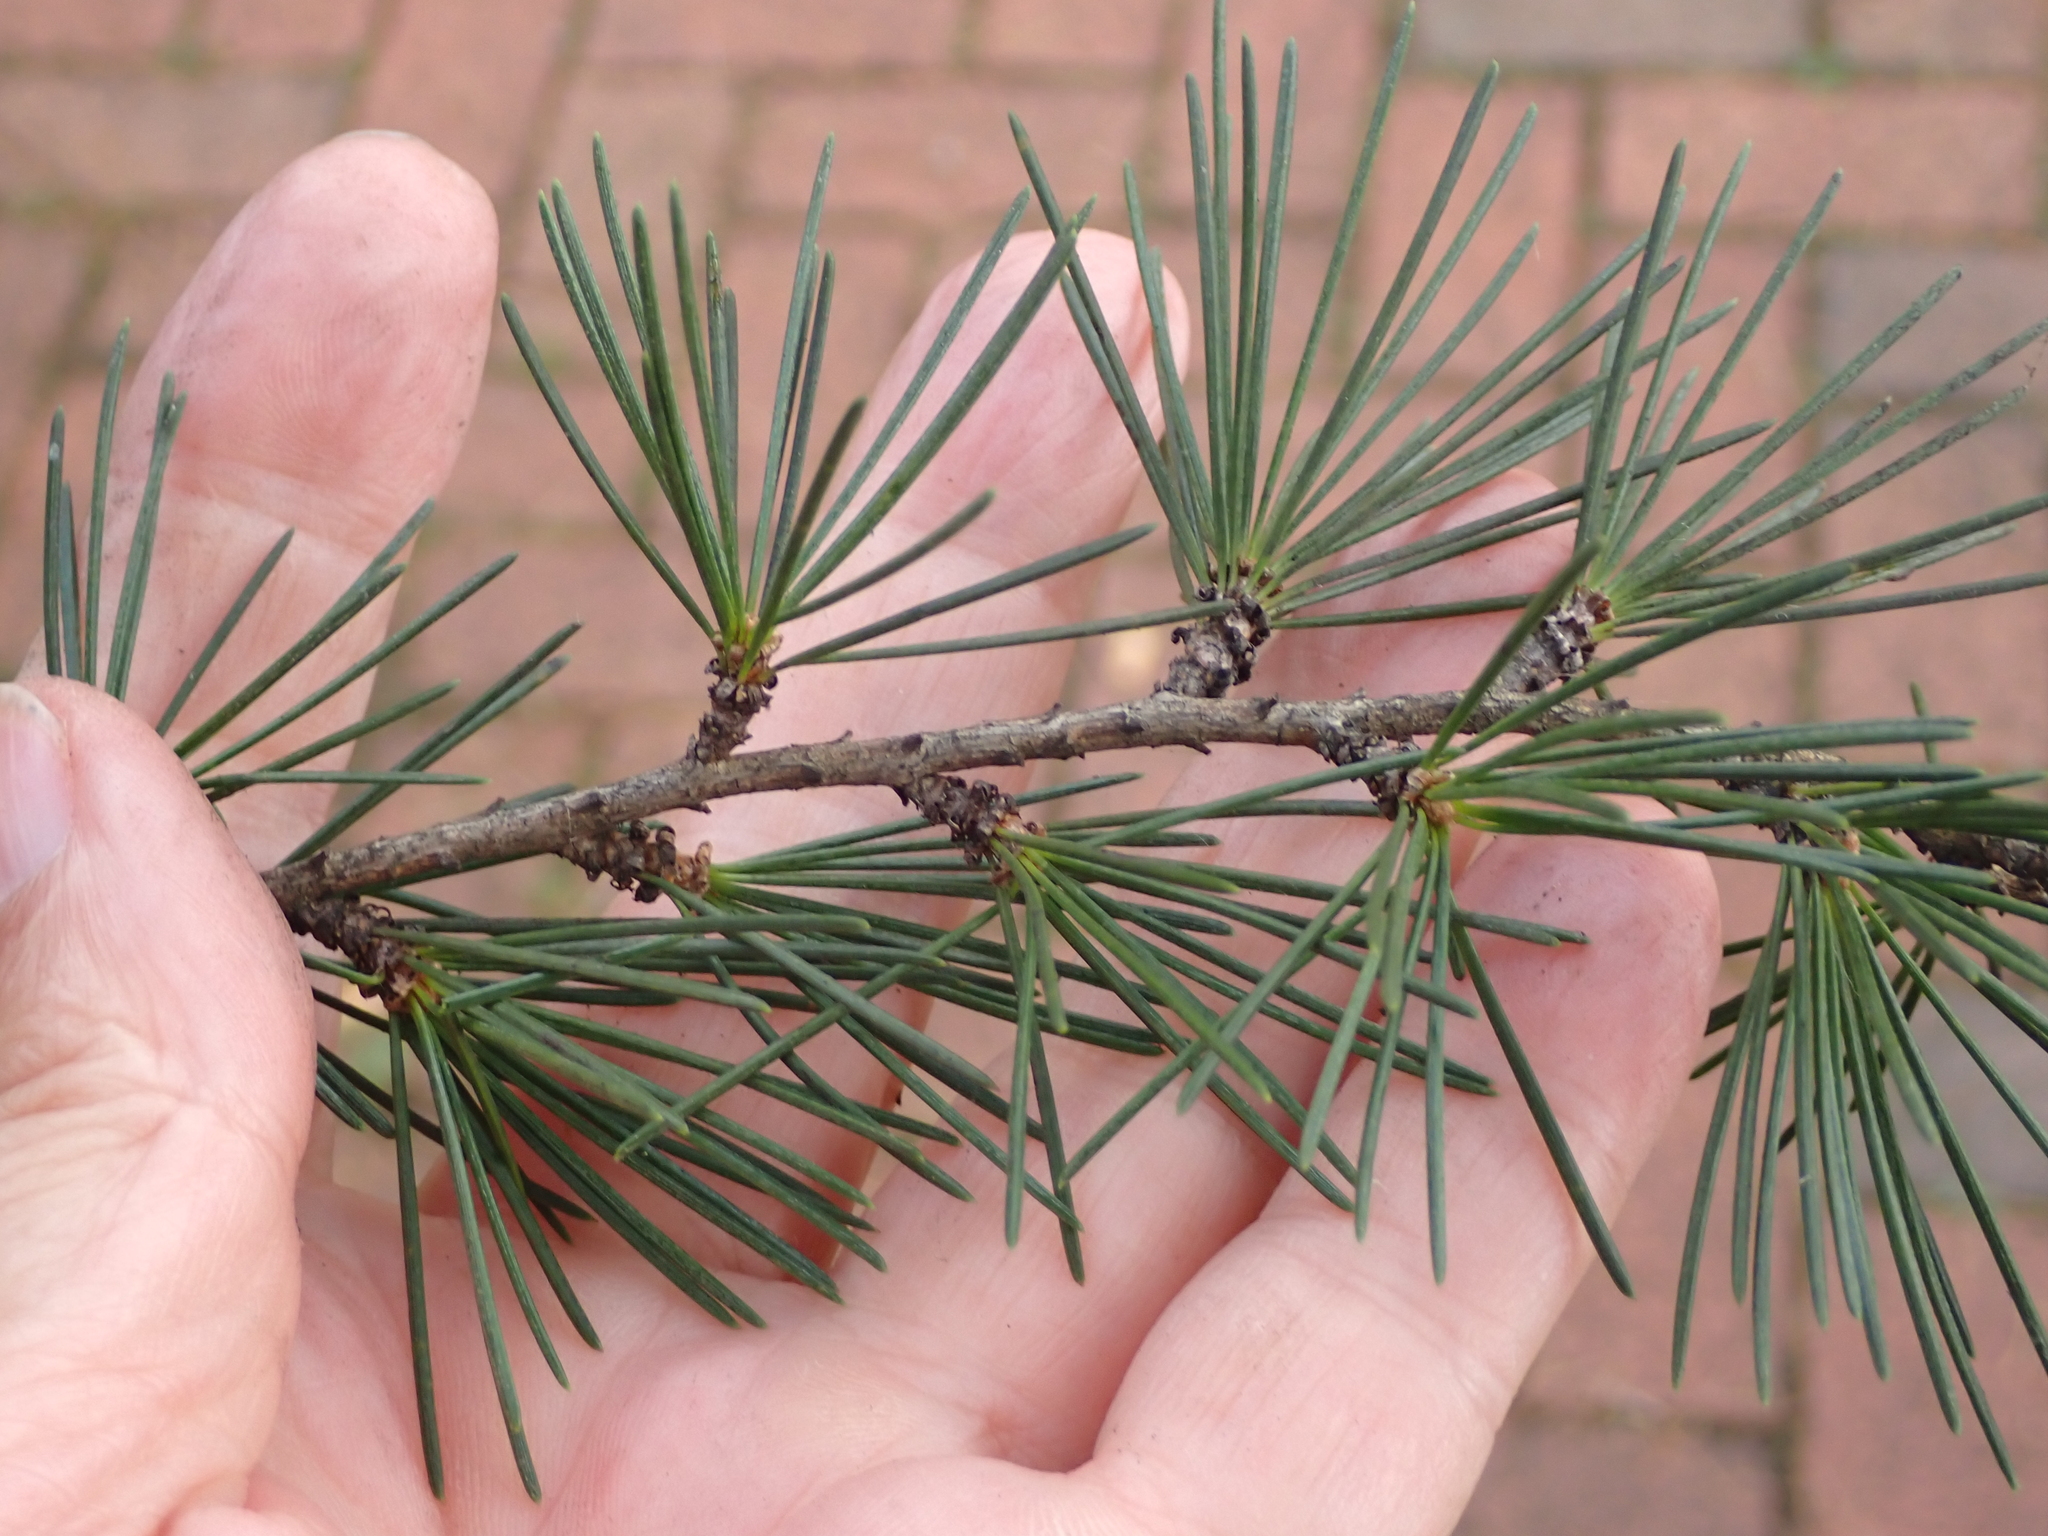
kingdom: Plantae
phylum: Tracheophyta
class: Pinopsida
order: Pinales
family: Pinaceae
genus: Cedrus
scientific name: Cedrus deodara
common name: Deodar
